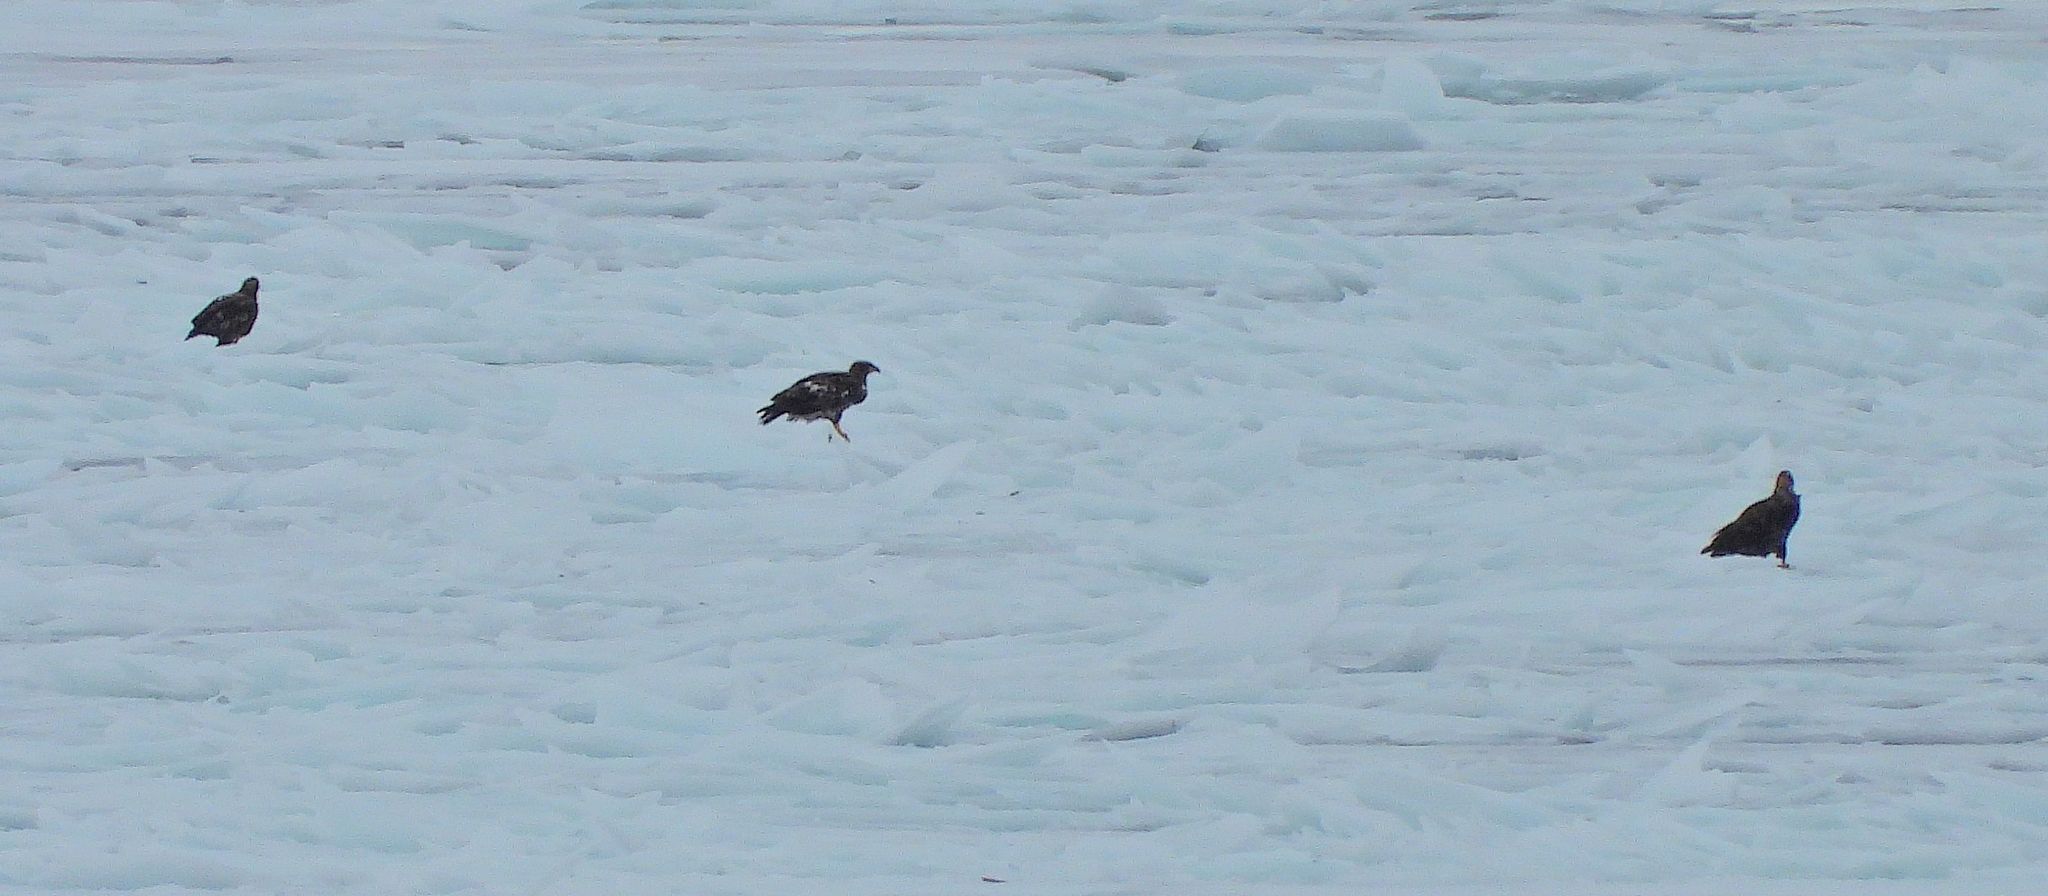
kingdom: Animalia
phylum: Chordata
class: Aves
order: Accipitriformes
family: Accipitridae
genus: Haliaeetus
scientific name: Haliaeetus leucocephalus
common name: Bald eagle
